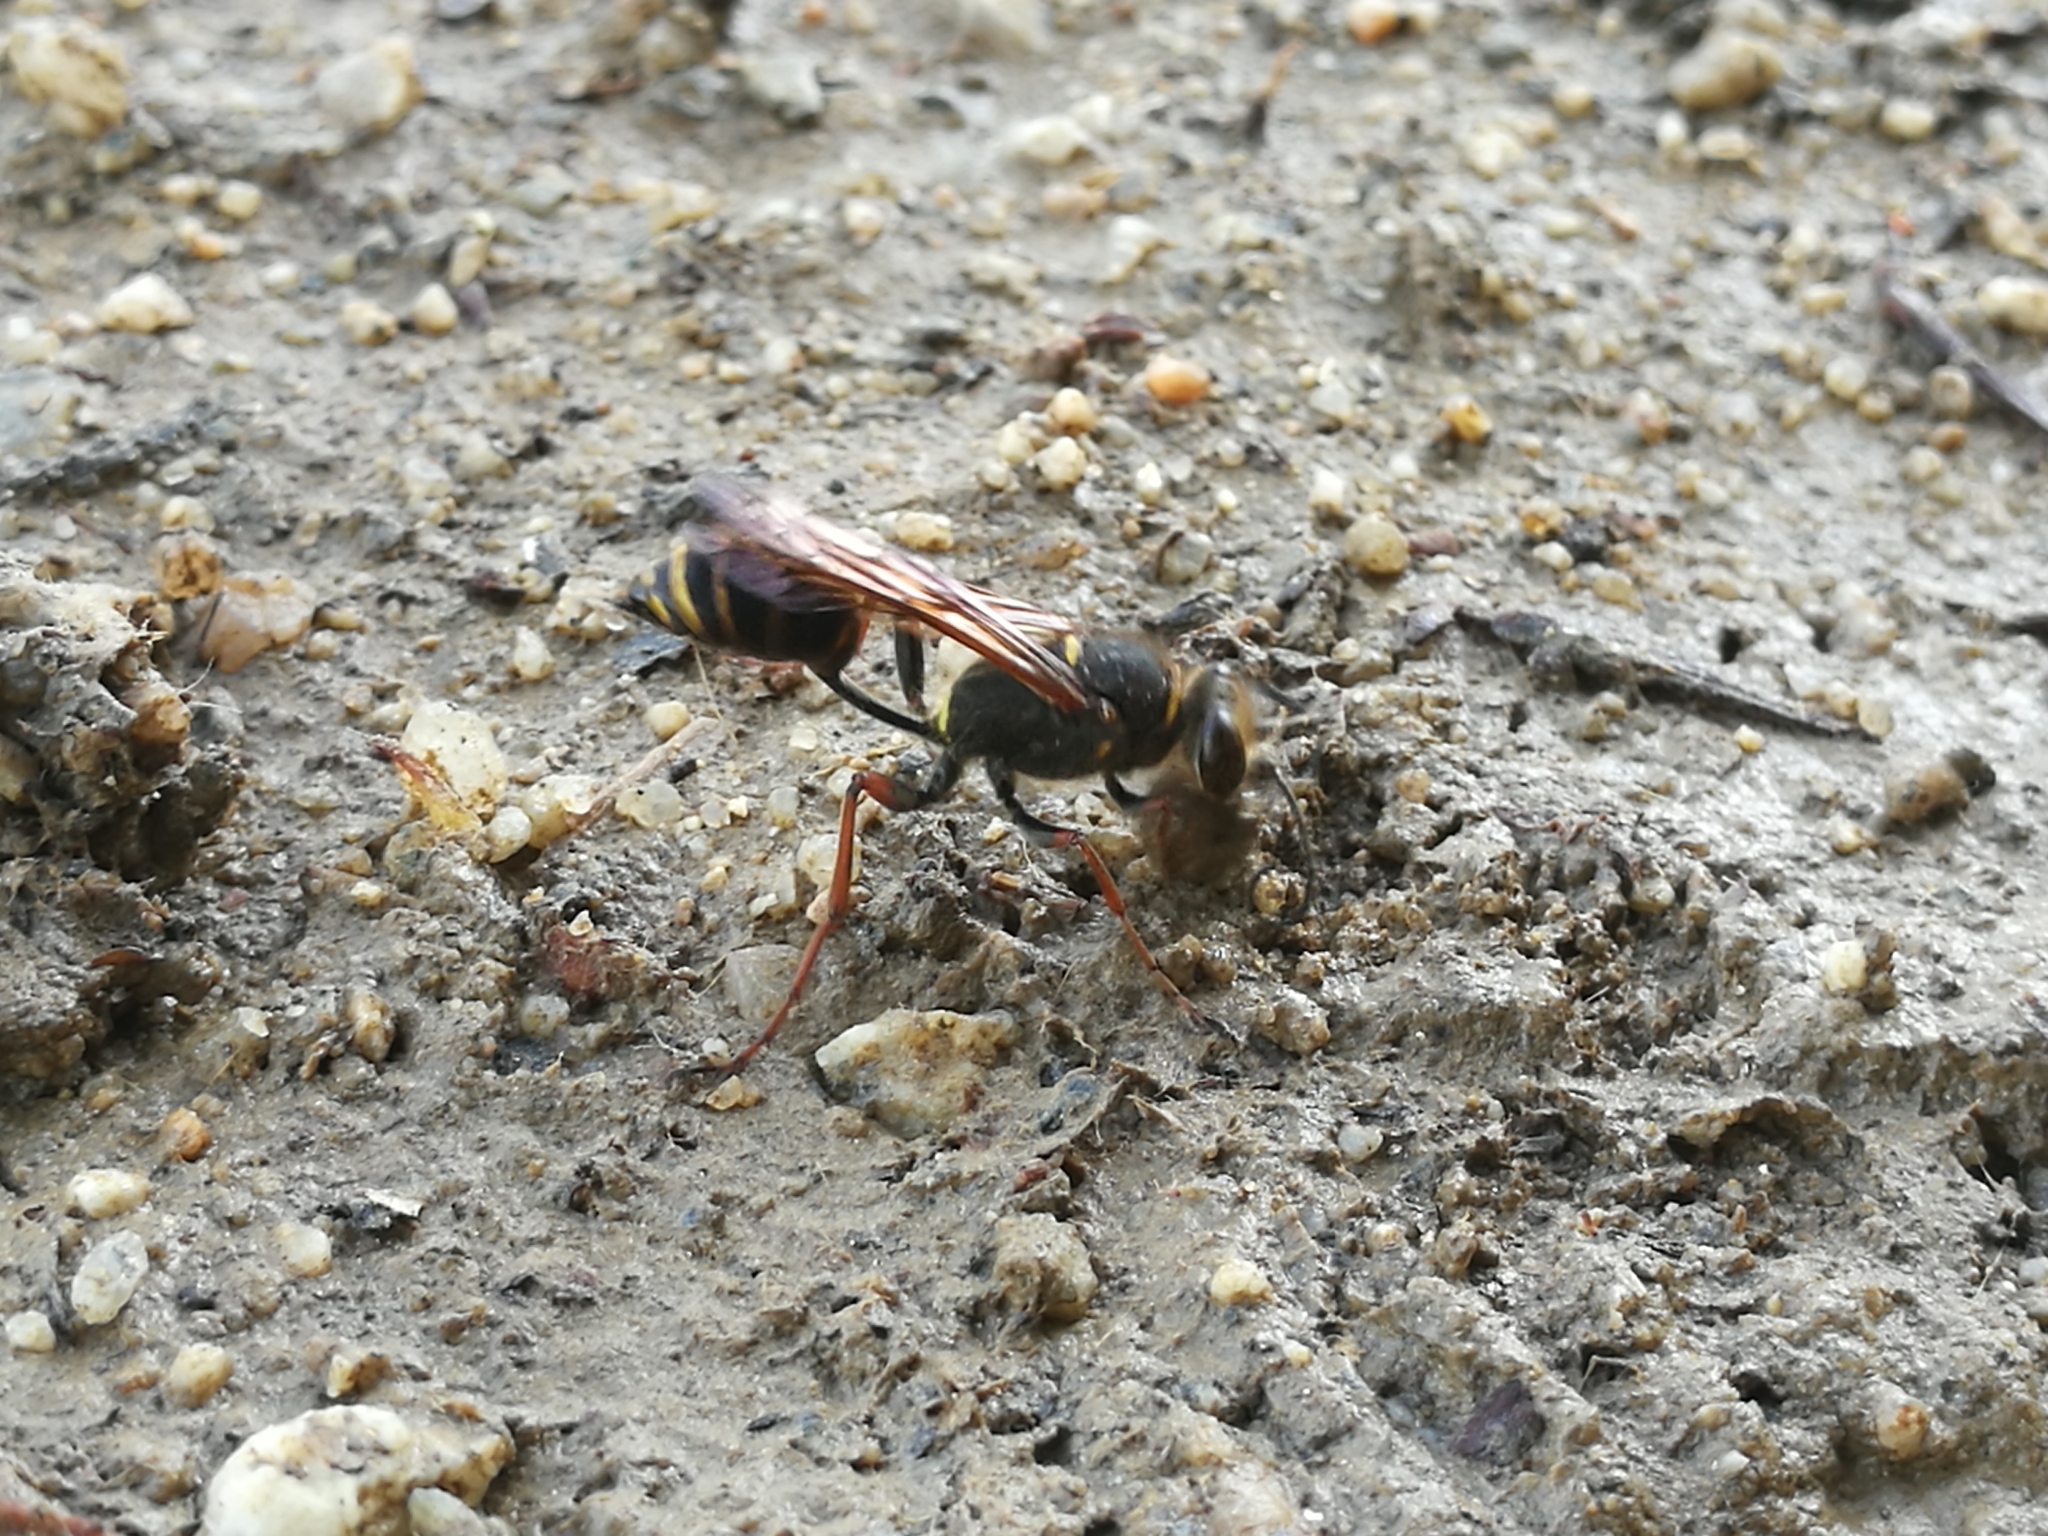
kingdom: Animalia
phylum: Arthropoda
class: Insecta
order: Hymenoptera
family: Sphecidae
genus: Sceliphron
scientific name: Sceliphron curvatum
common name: Pèlopèe
